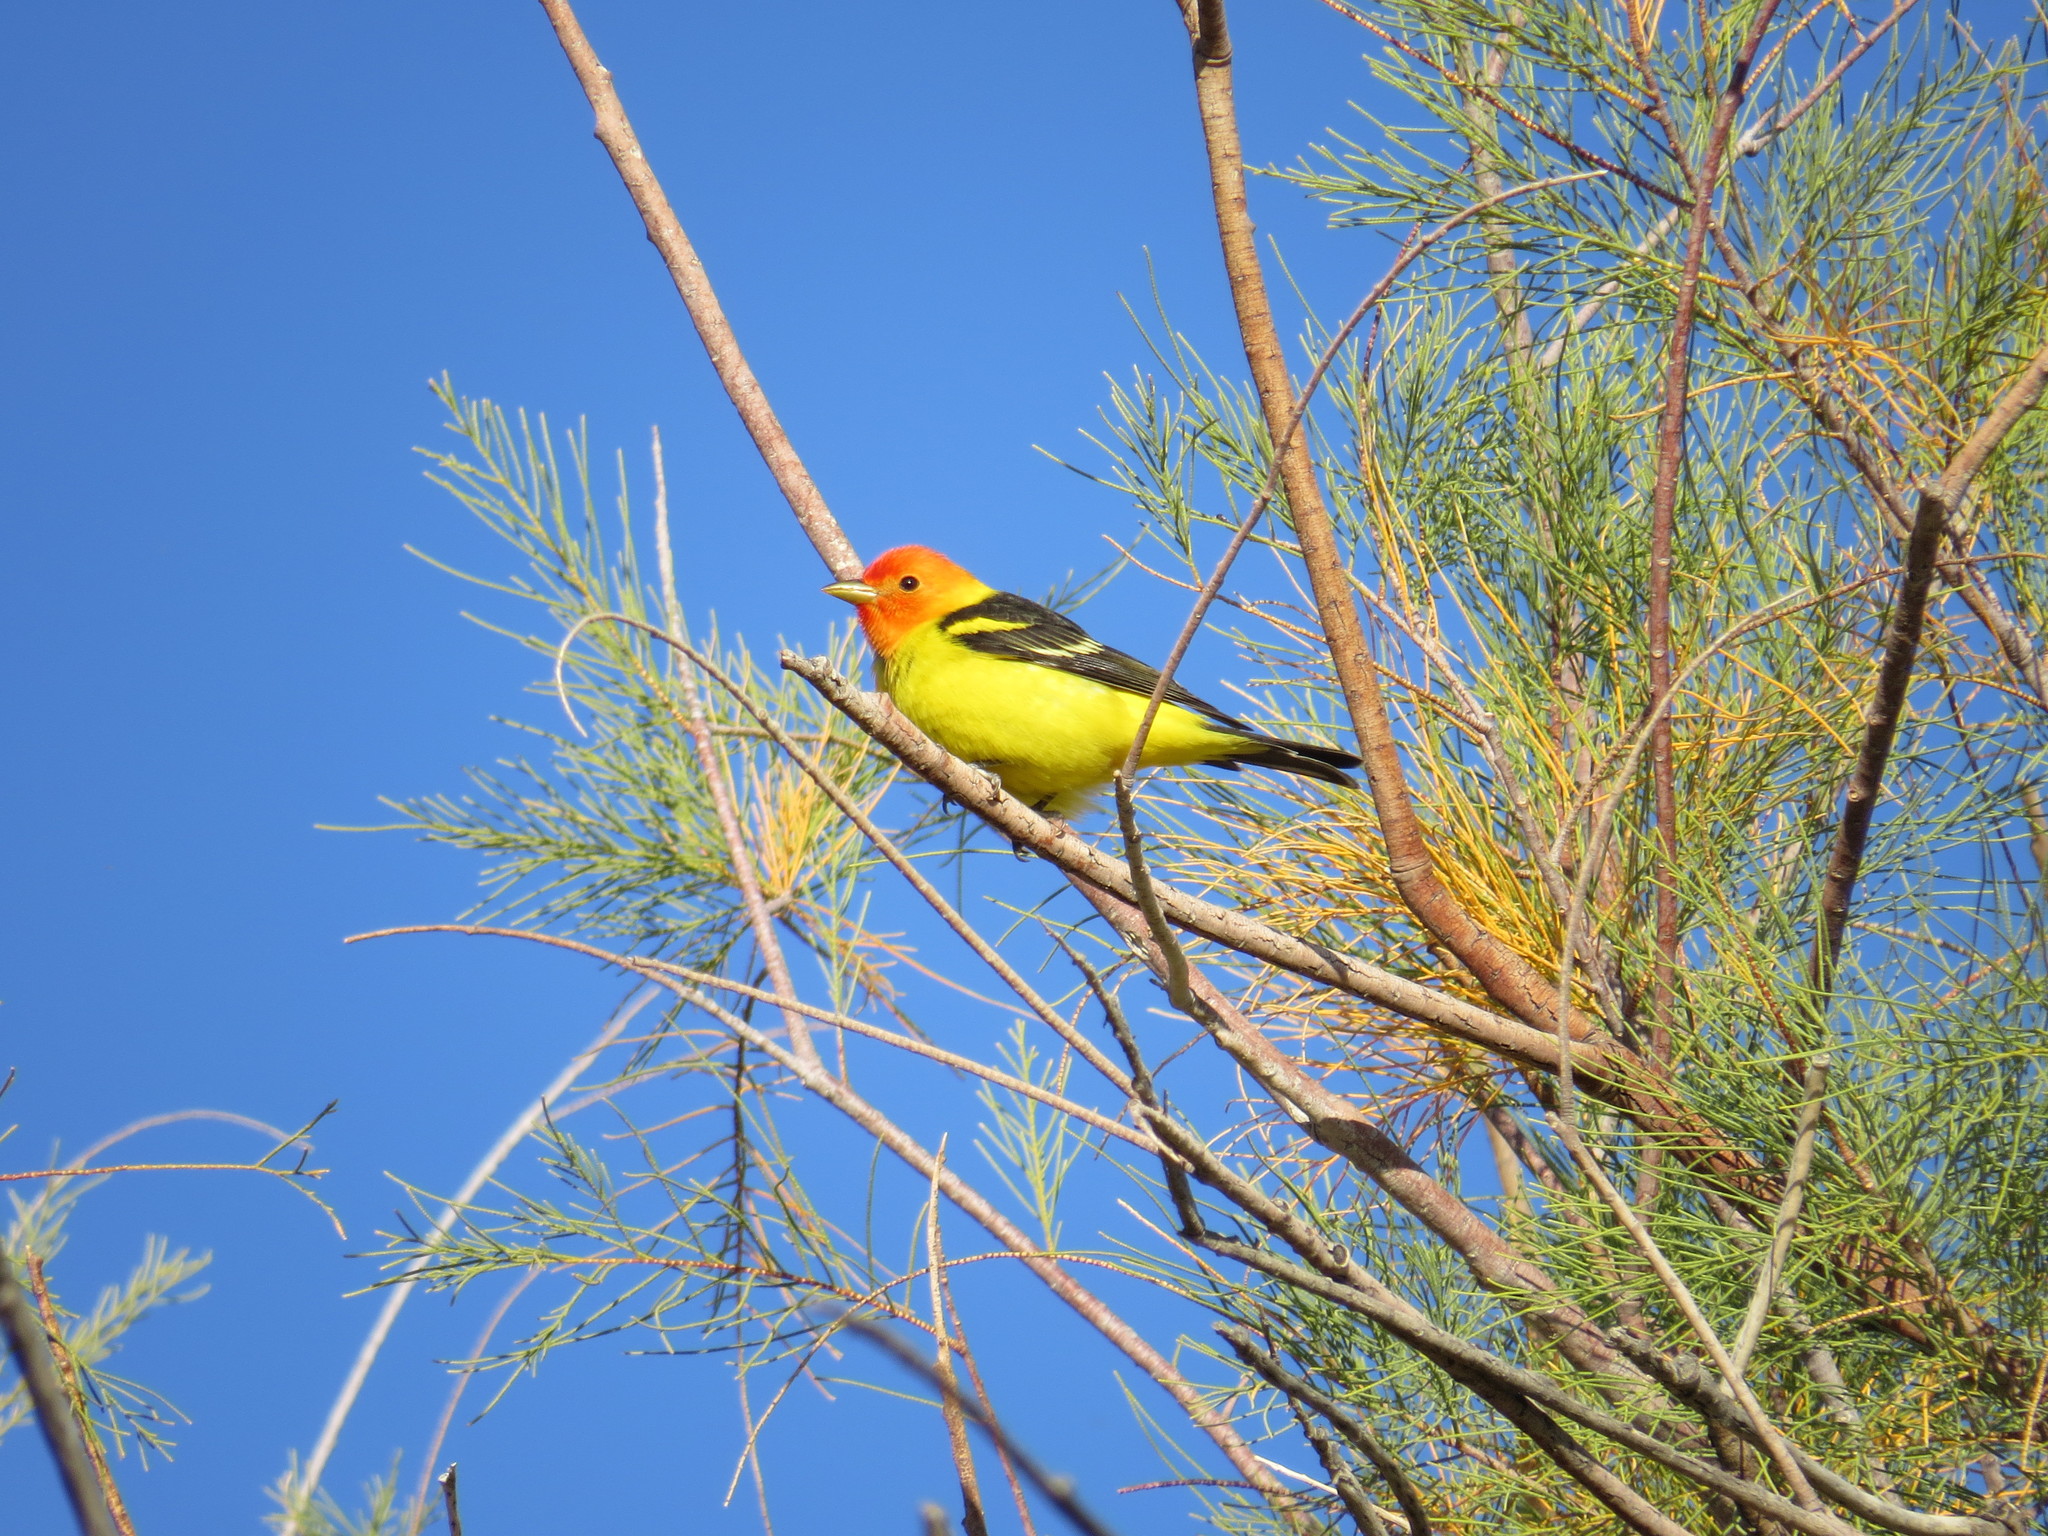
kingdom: Animalia
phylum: Chordata
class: Aves
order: Passeriformes
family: Cardinalidae
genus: Piranga
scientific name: Piranga ludoviciana
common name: Western tanager
